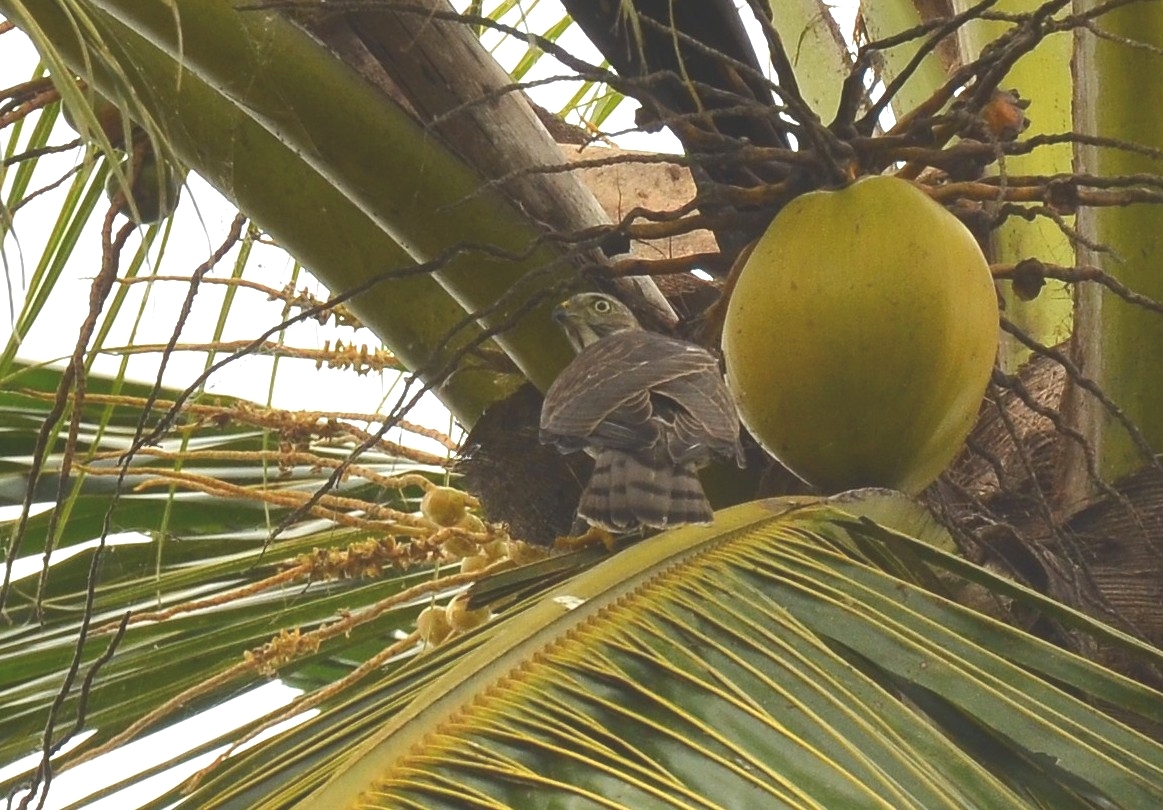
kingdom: Animalia
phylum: Chordata
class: Aves
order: Accipitriformes
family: Accipitridae
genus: Accipiter
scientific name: Accipiter badius
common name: Shikra
